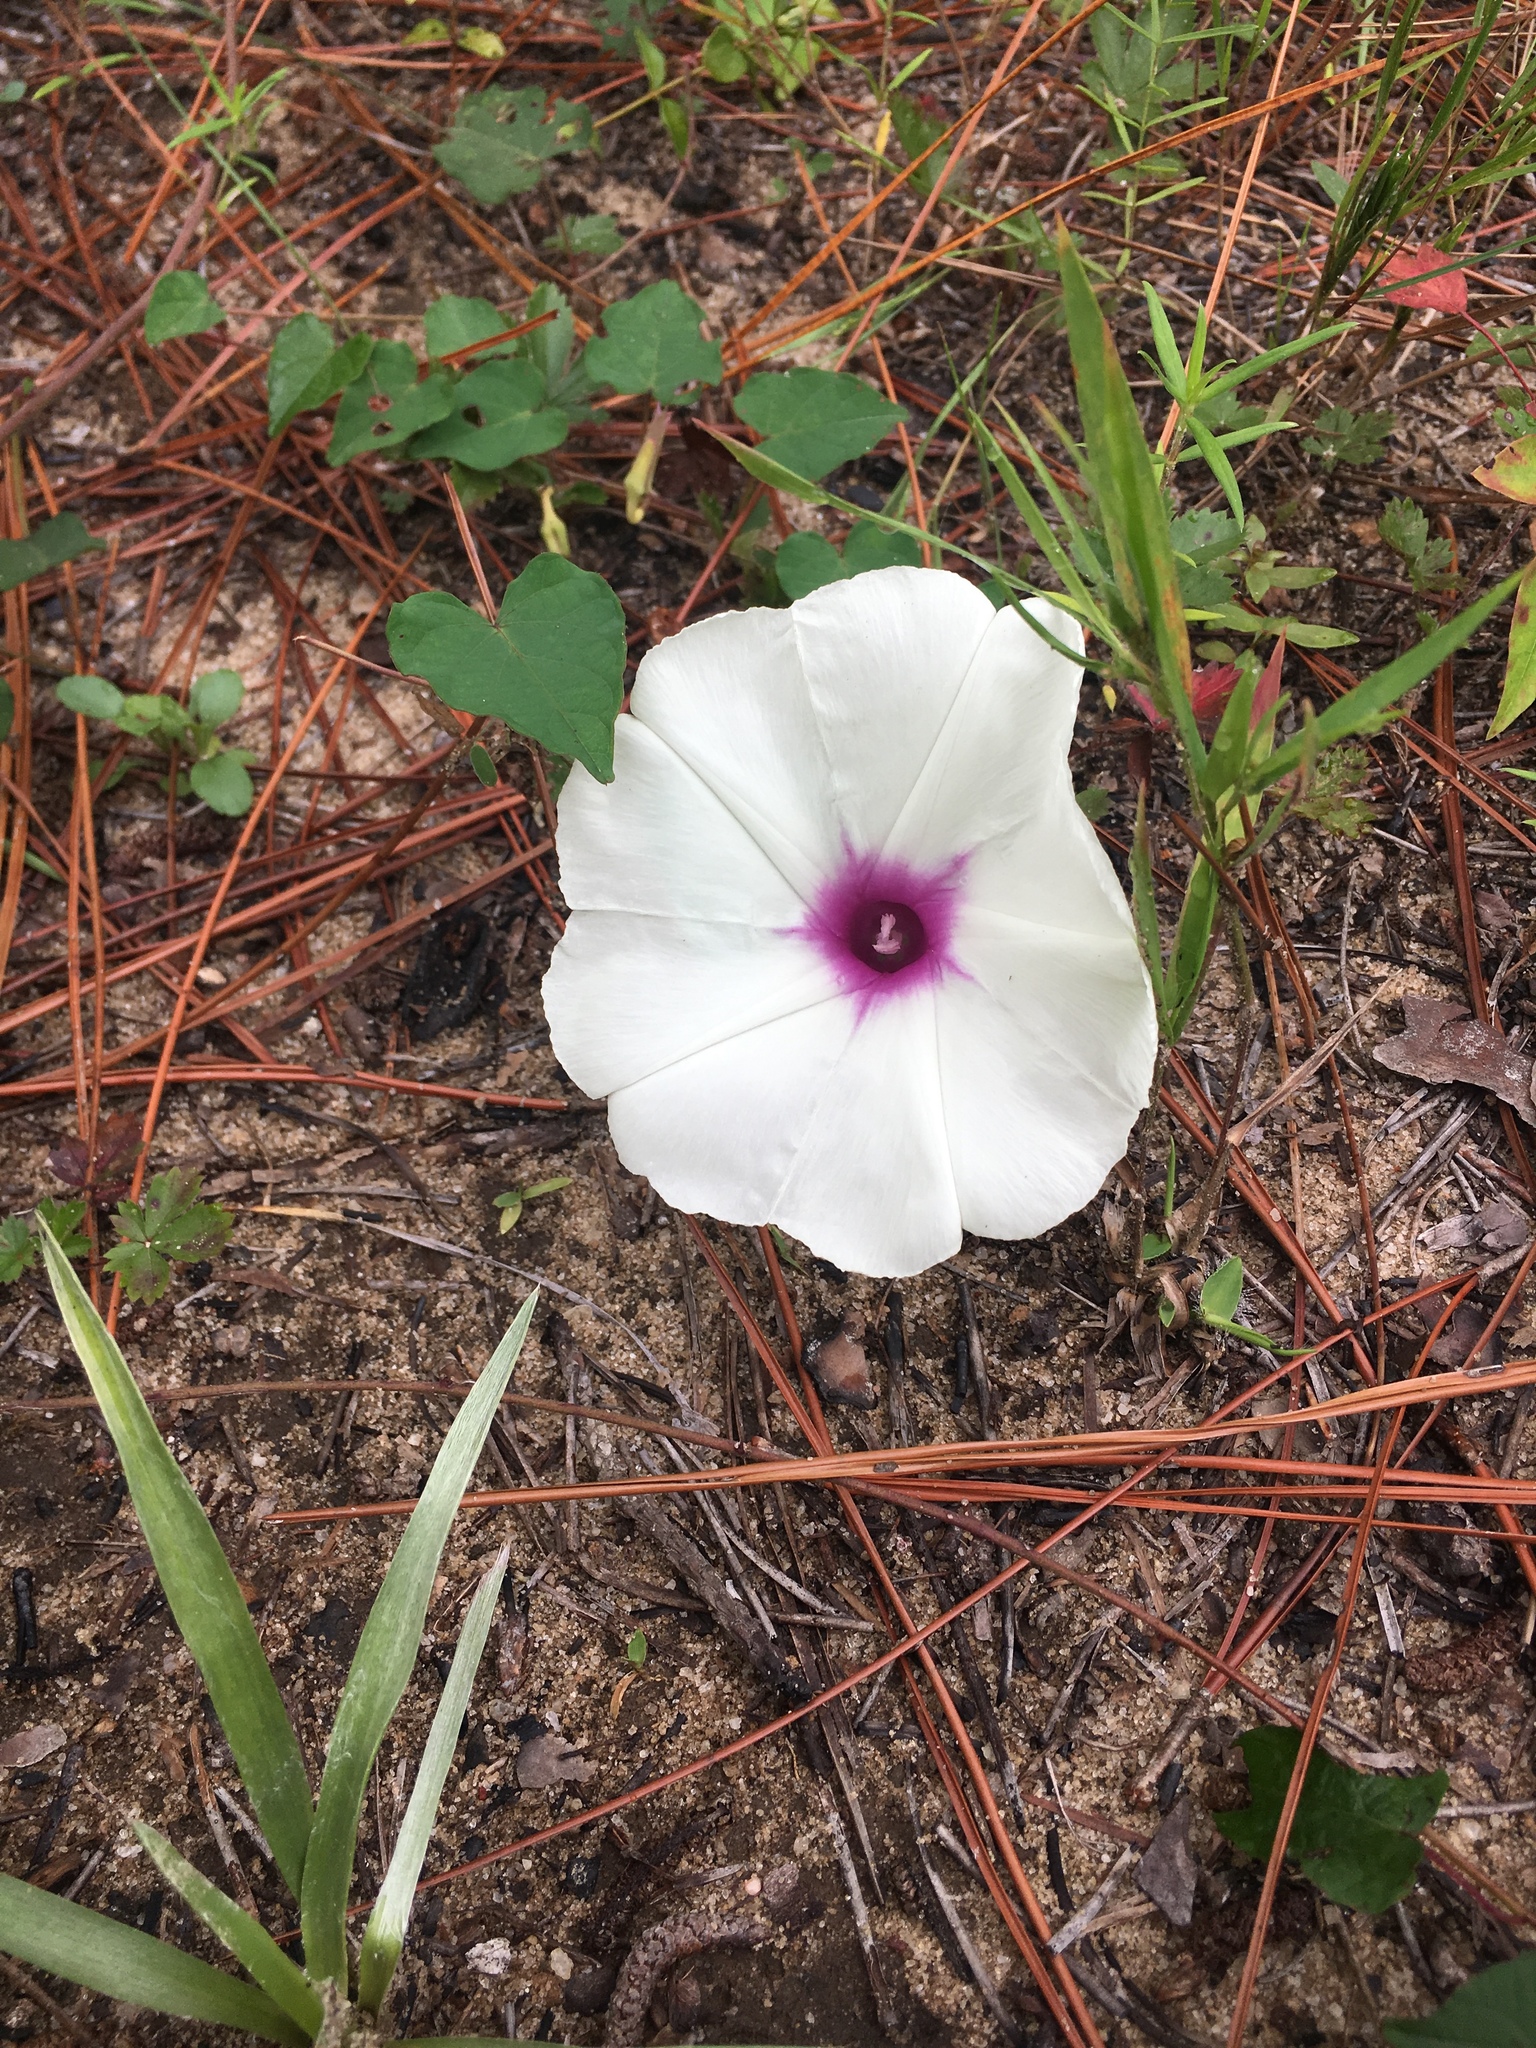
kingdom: Plantae
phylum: Tracheophyta
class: Magnoliopsida
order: Solanales
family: Convolvulaceae
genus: Ipomoea
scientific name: Ipomoea pandurata
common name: Man-of-the-earth
